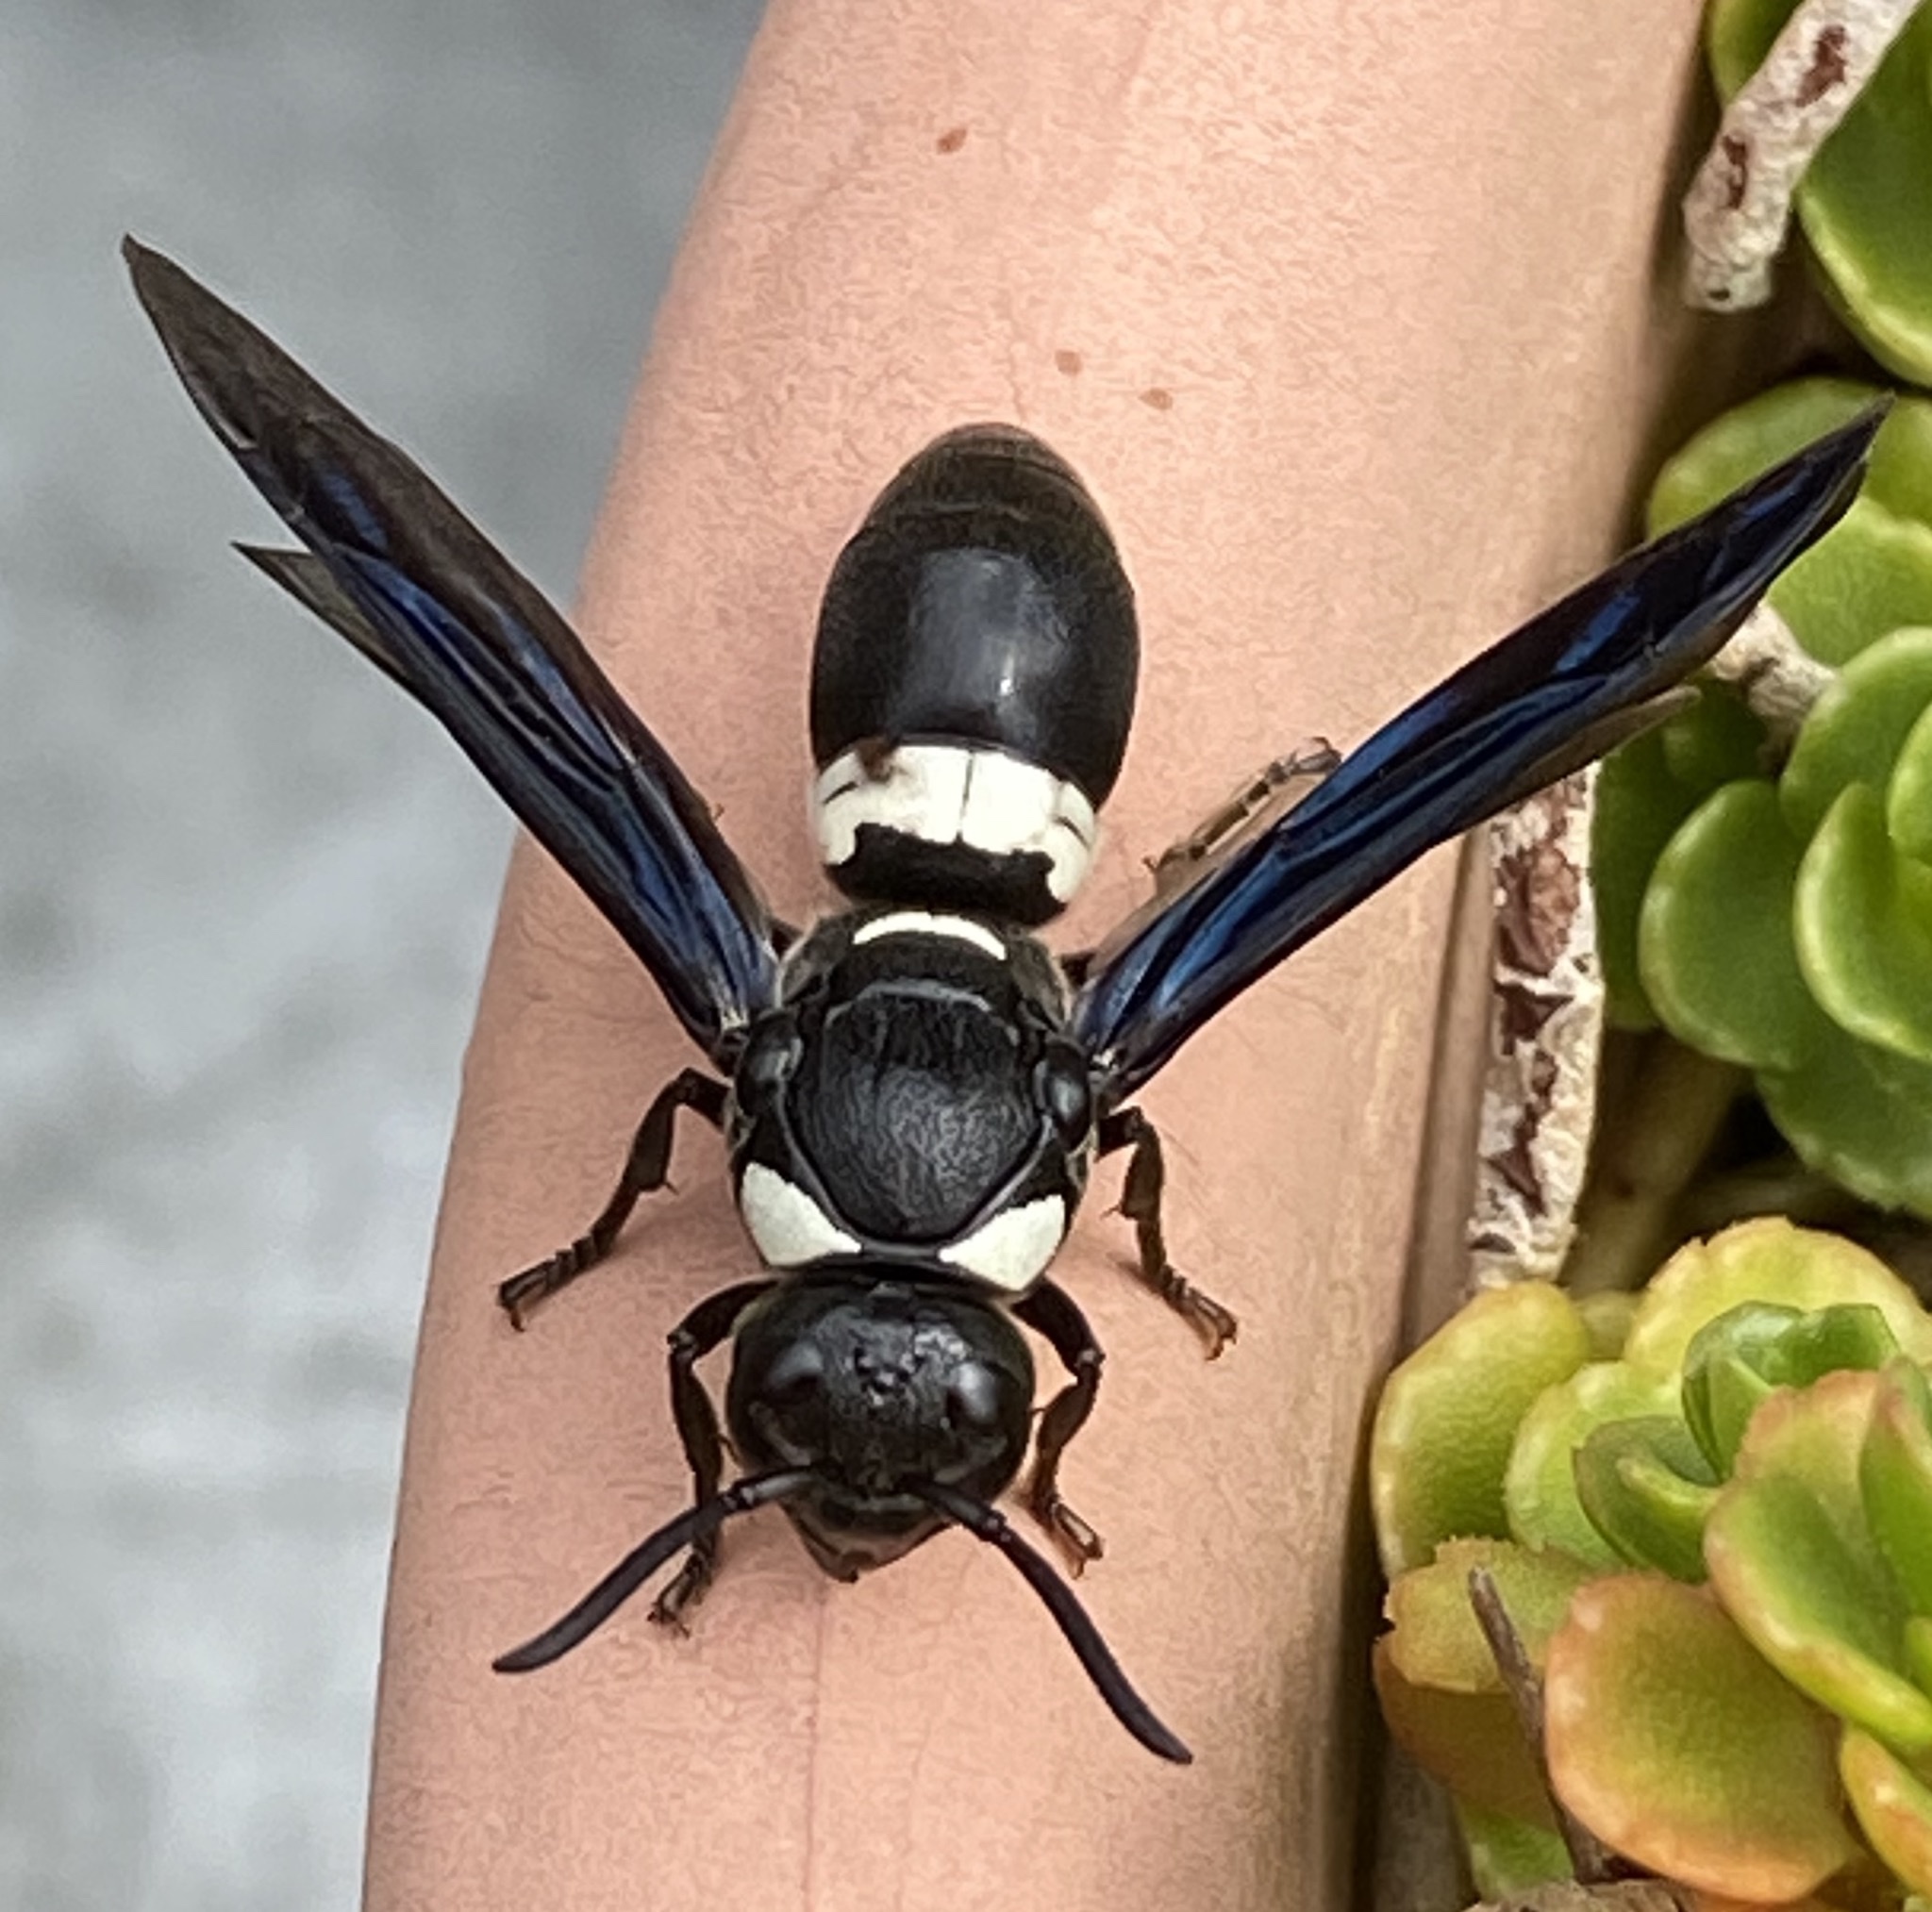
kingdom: Animalia
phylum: Arthropoda
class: Insecta
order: Hymenoptera
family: Eumenidae
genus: Monobia
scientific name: Monobia quadridens
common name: Four-toothed mason wasp
